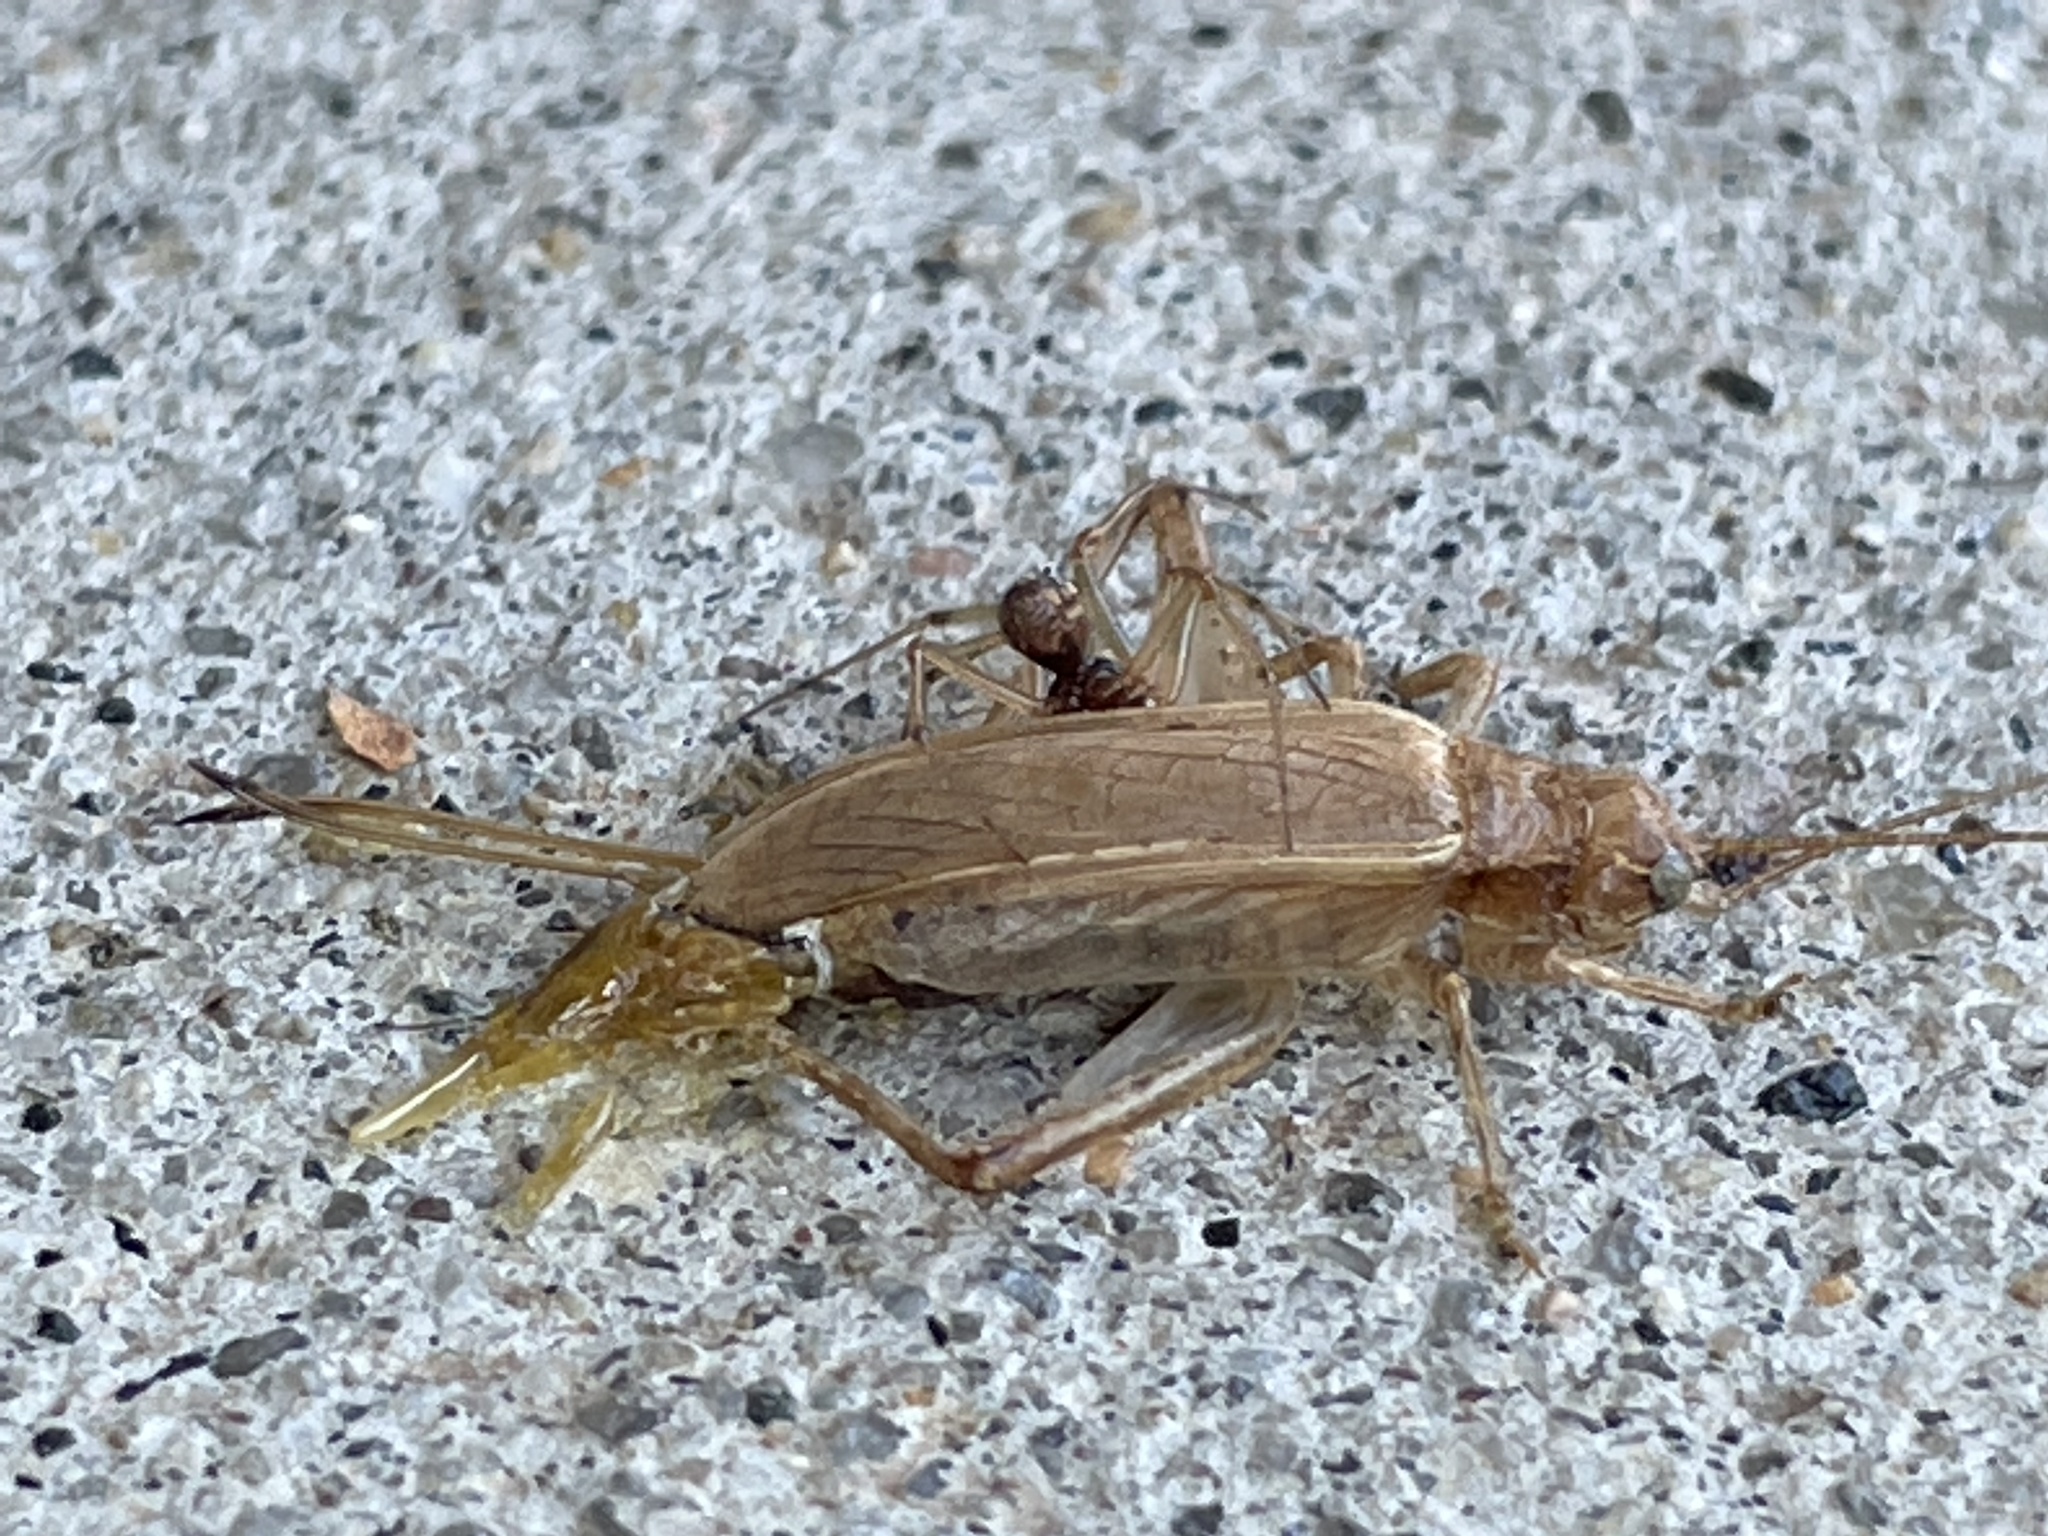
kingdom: Animalia
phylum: Arthropoda
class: Insecta
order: Orthoptera
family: Gryllidae
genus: Hapithus
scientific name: Hapithus saltator
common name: Jumping bush cricket
